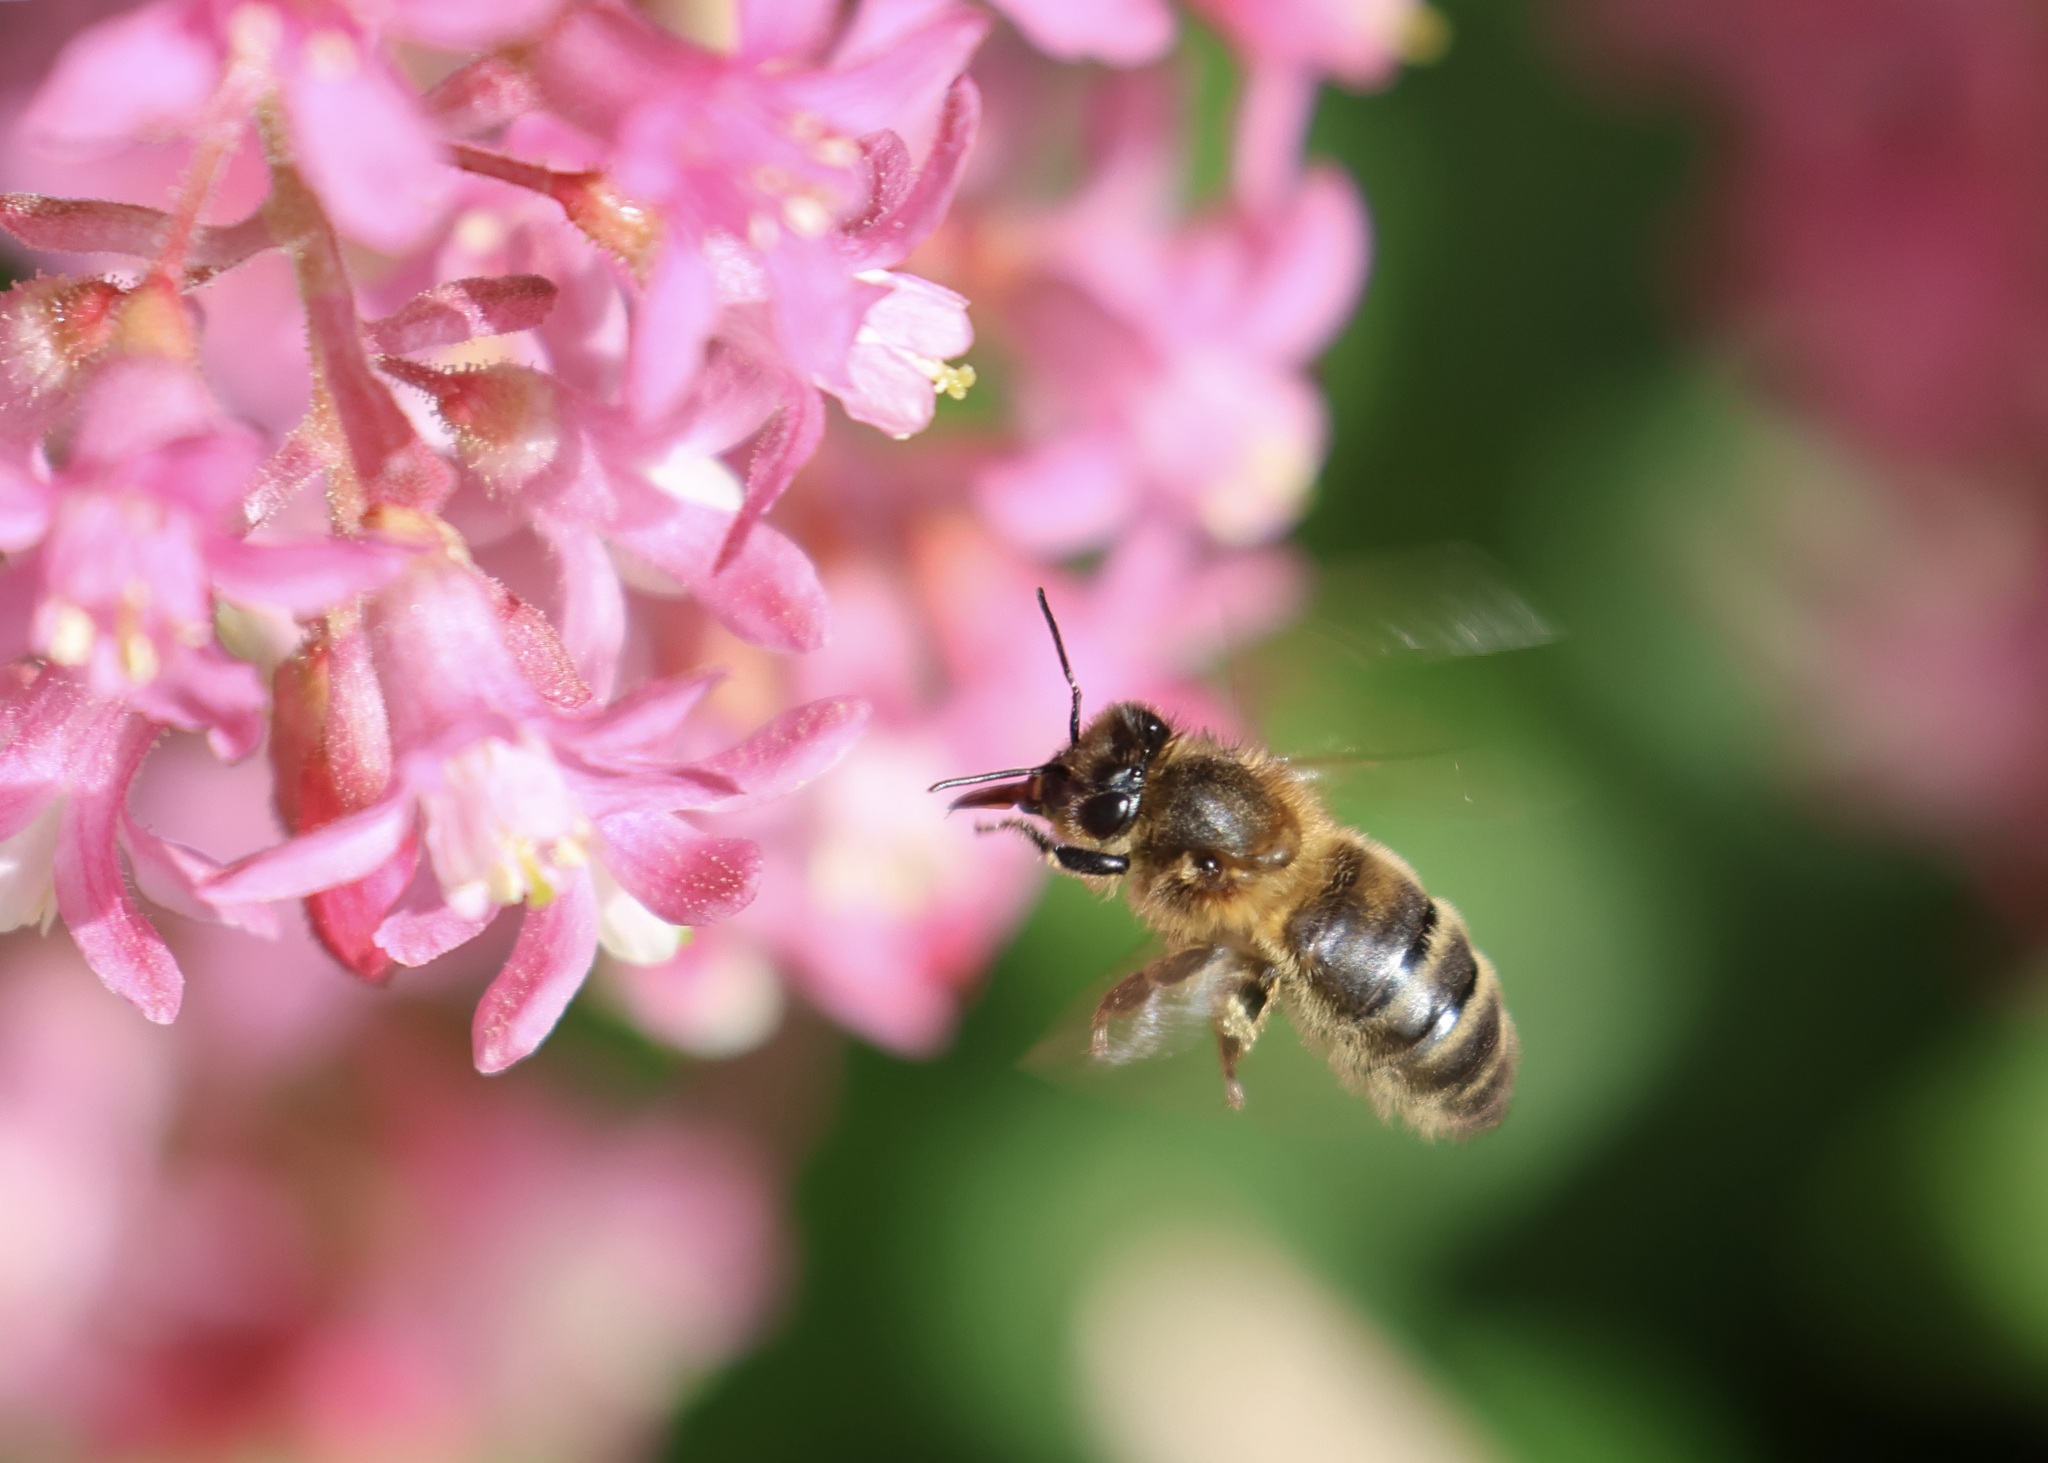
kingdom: Animalia
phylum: Arthropoda
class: Insecta
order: Hymenoptera
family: Apidae
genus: Apis
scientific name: Apis mellifera
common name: Honey bee
